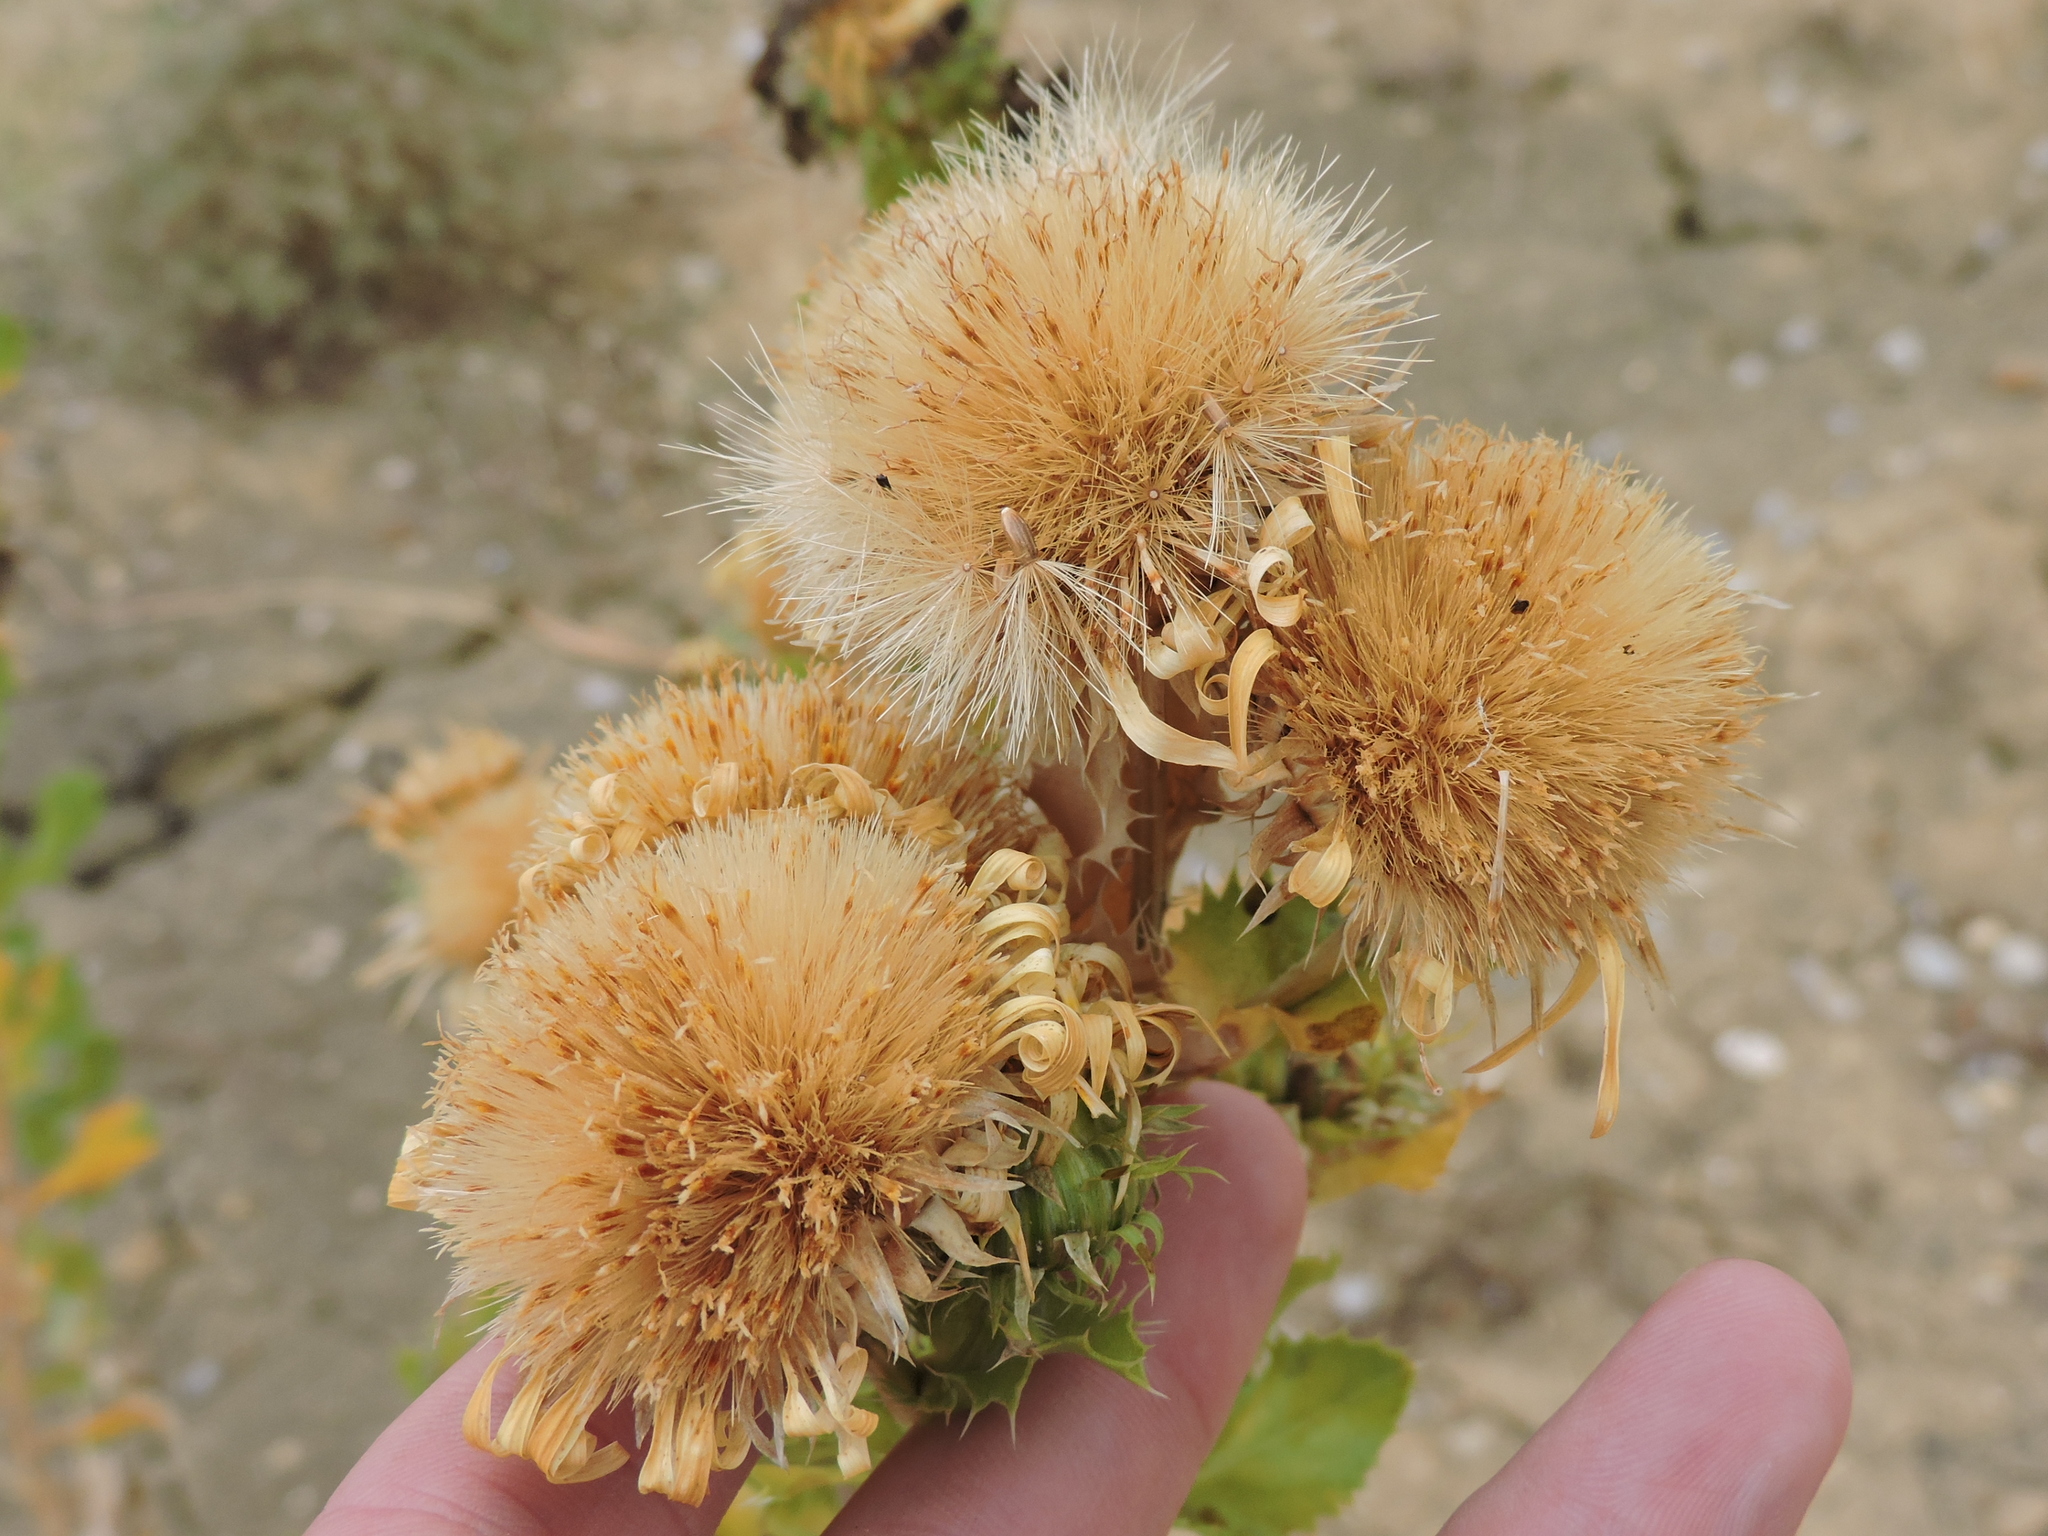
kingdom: Plantae
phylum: Tracheophyta
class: Magnoliopsida
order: Asterales
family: Asteraceae
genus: Grindelia
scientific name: Grindelia ciliata
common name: Goldenweed
